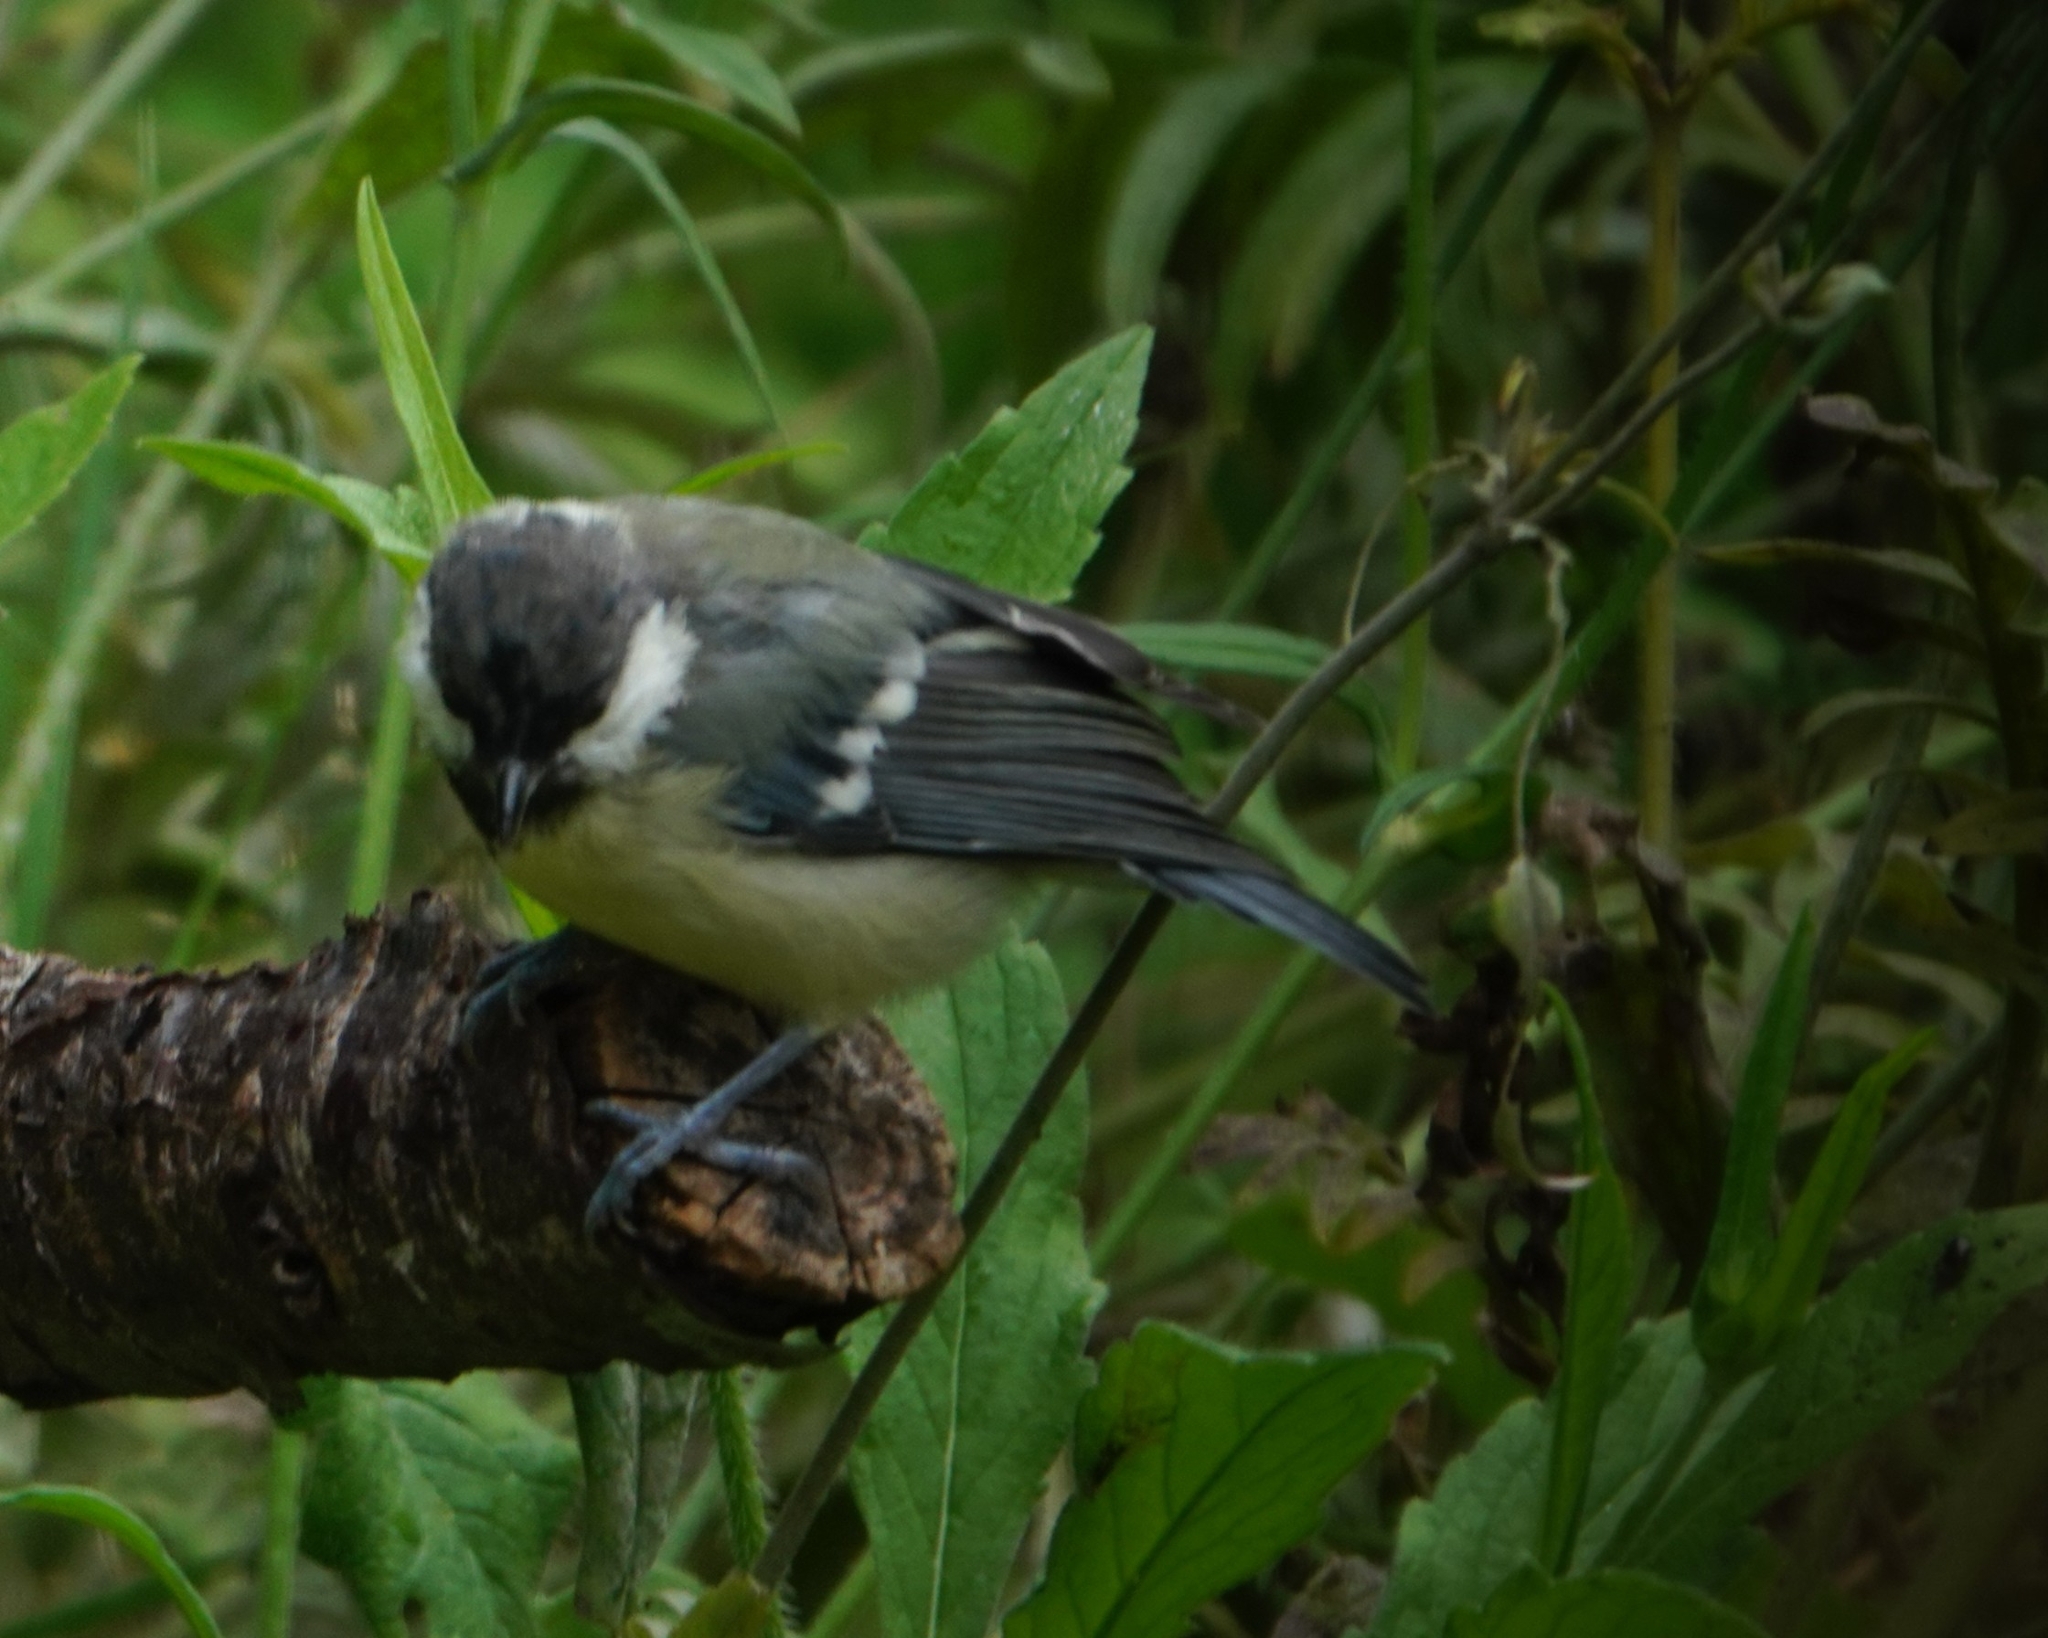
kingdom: Animalia
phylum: Chordata
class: Aves
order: Passeriformes
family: Paridae
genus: Parus
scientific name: Parus major
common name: Great tit
